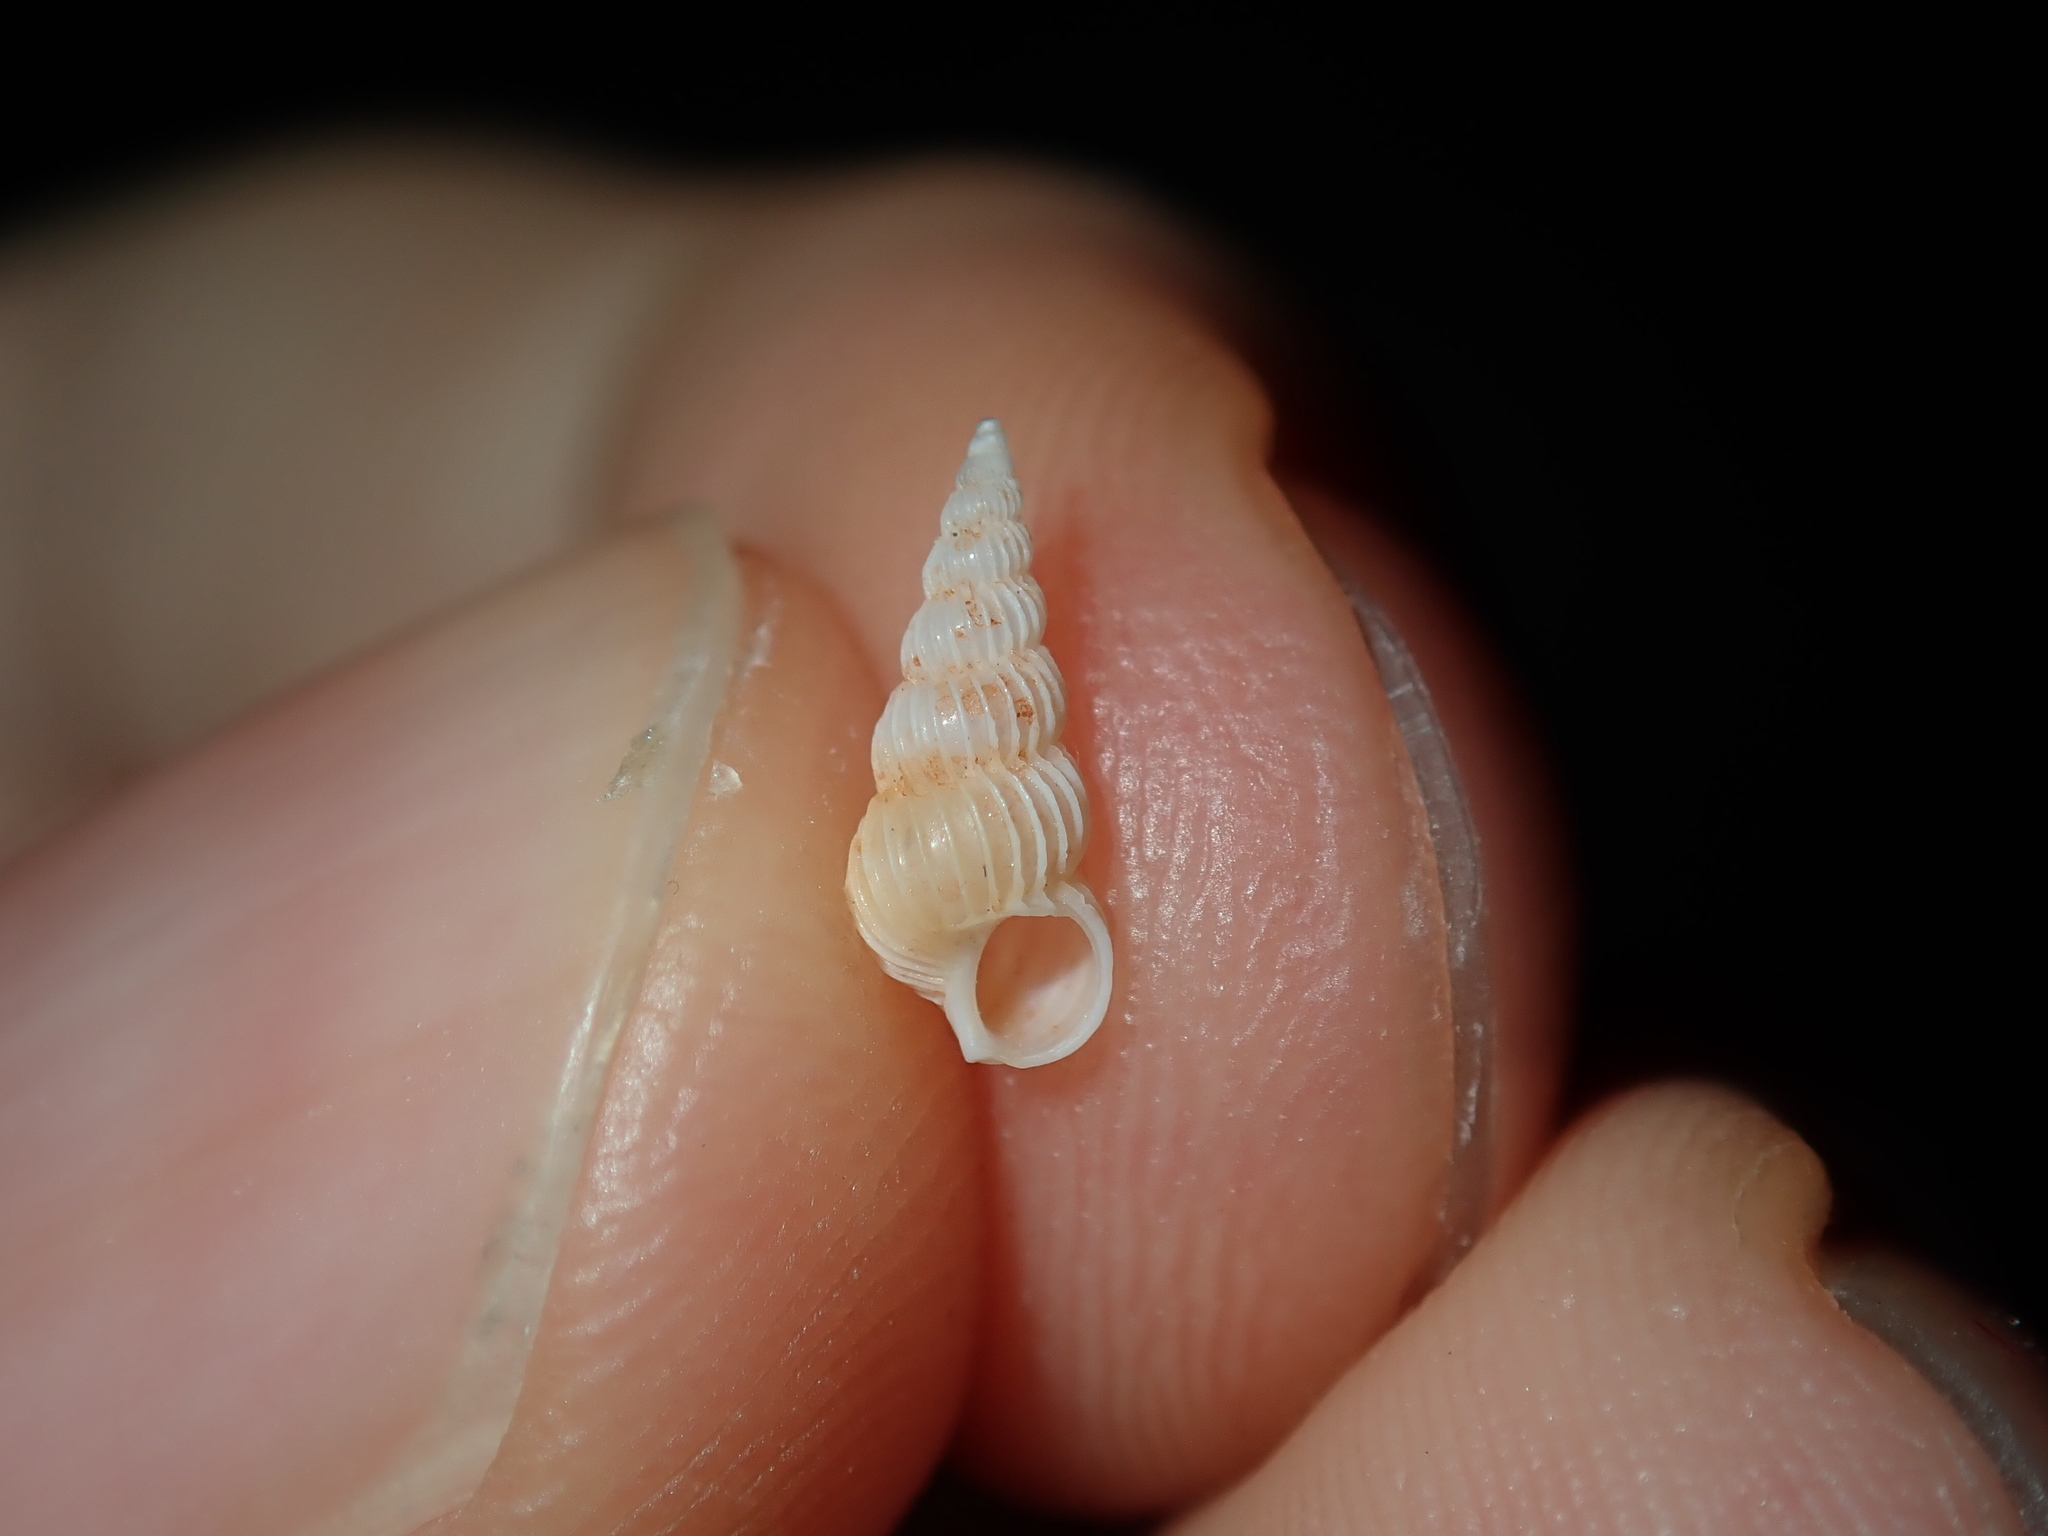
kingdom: Animalia
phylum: Mollusca
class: Gastropoda
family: Epitoniidae
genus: Epitonium
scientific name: Epitonium jukesianum
